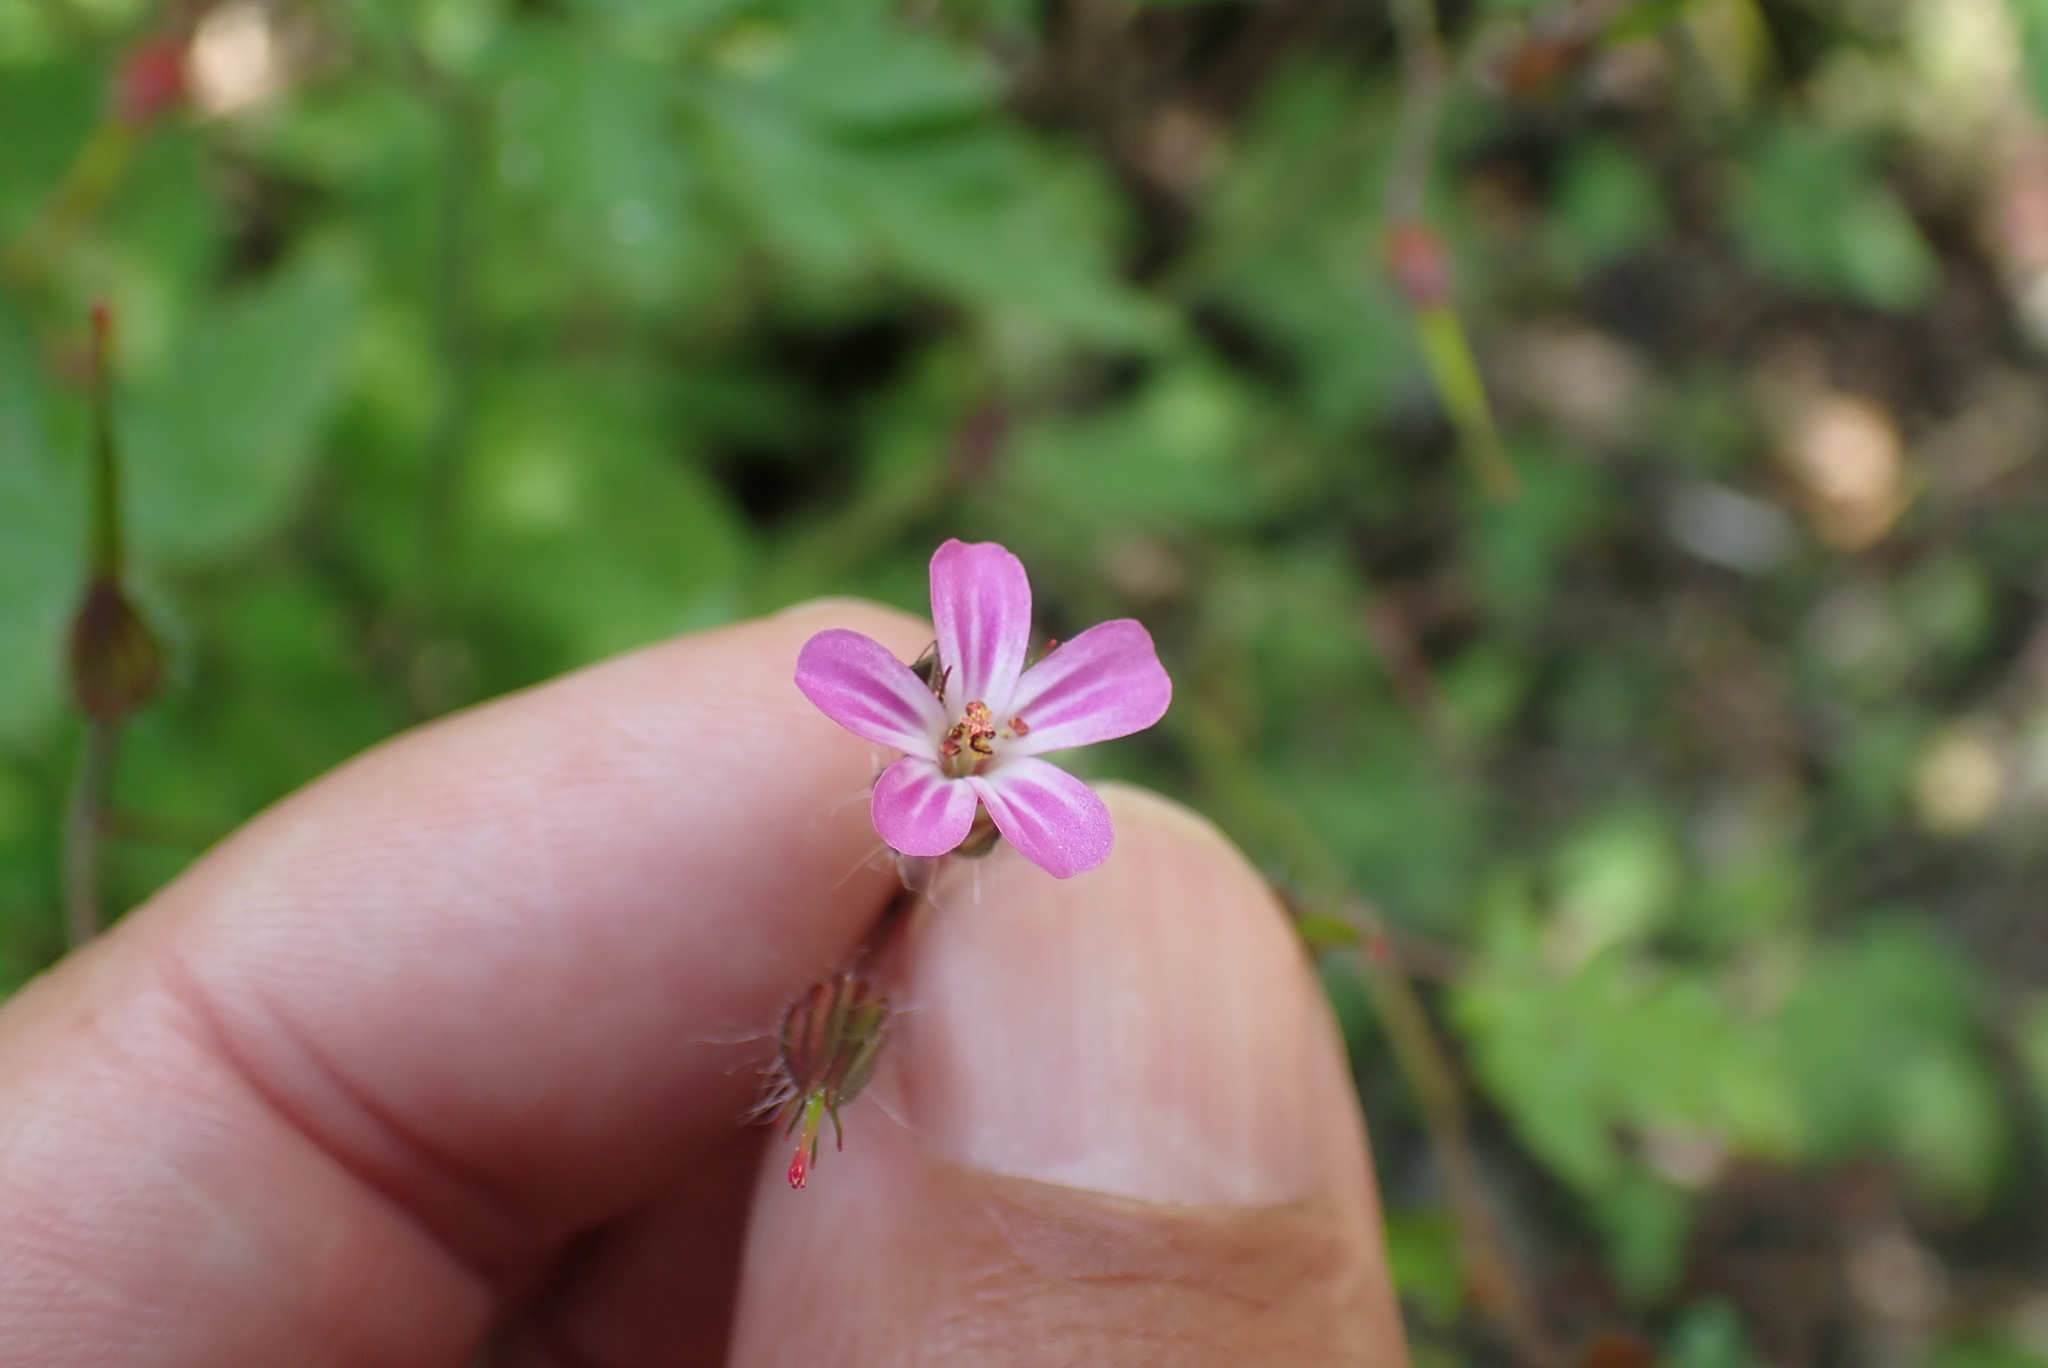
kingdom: Plantae
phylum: Tracheophyta
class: Magnoliopsida
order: Geraniales
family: Geraniaceae
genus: Geranium
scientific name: Geranium robertianum
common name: Herb-robert
